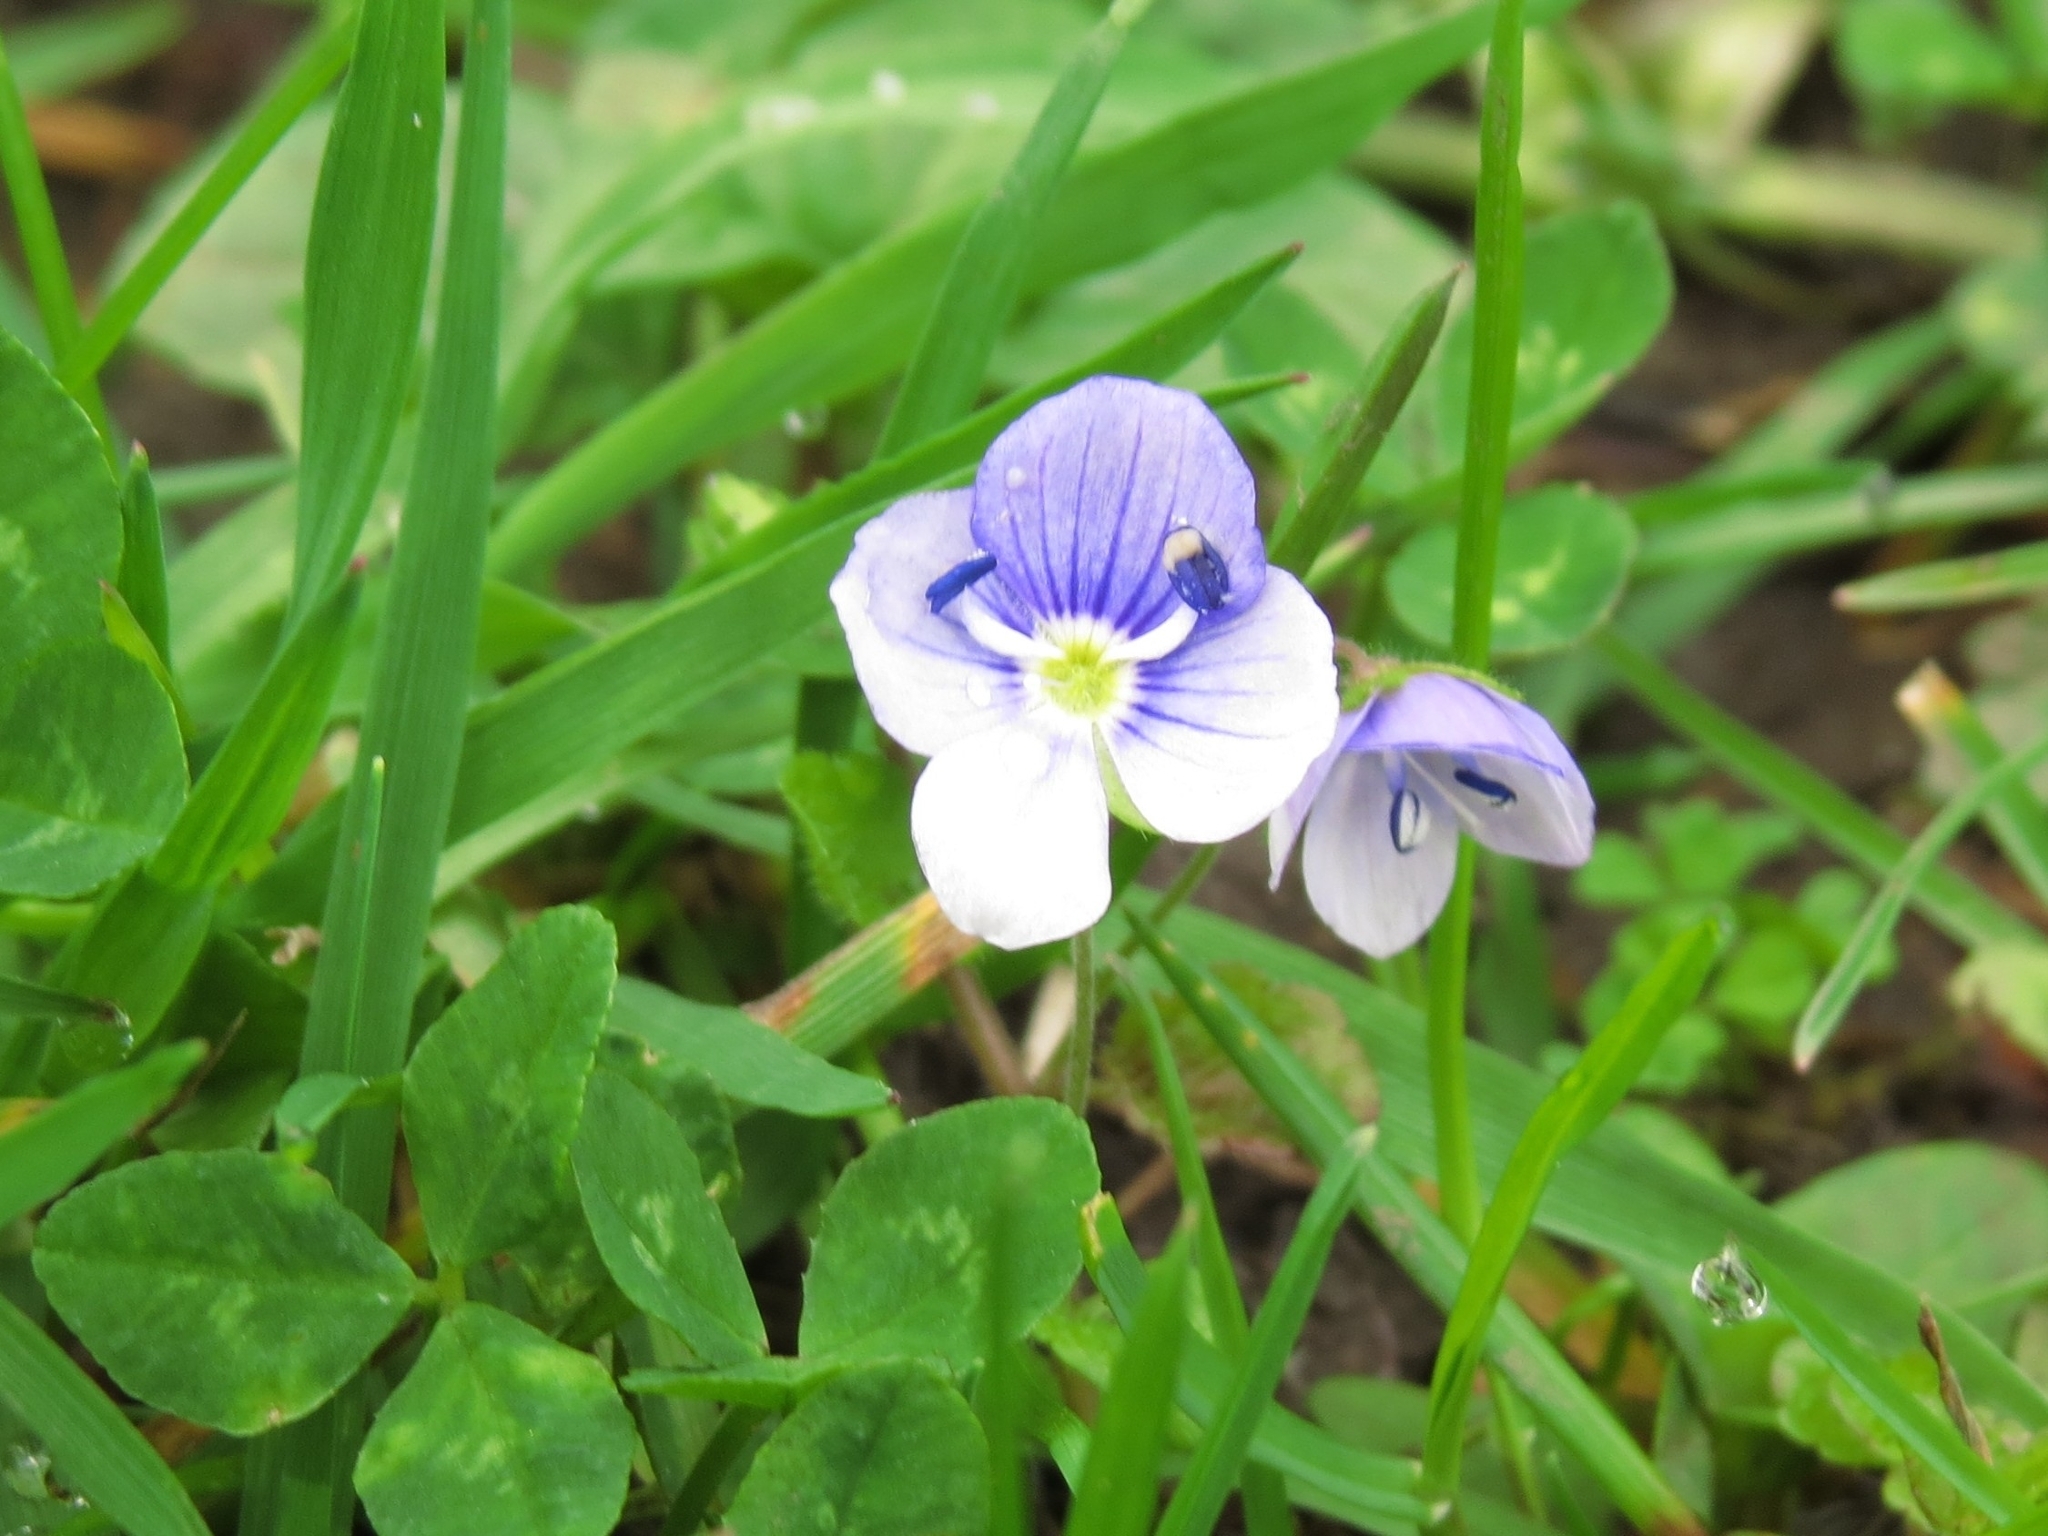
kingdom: Plantae
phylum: Tracheophyta
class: Magnoliopsida
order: Lamiales
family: Plantaginaceae
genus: Veronica
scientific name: Veronica filiformis
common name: Slender speedwell
